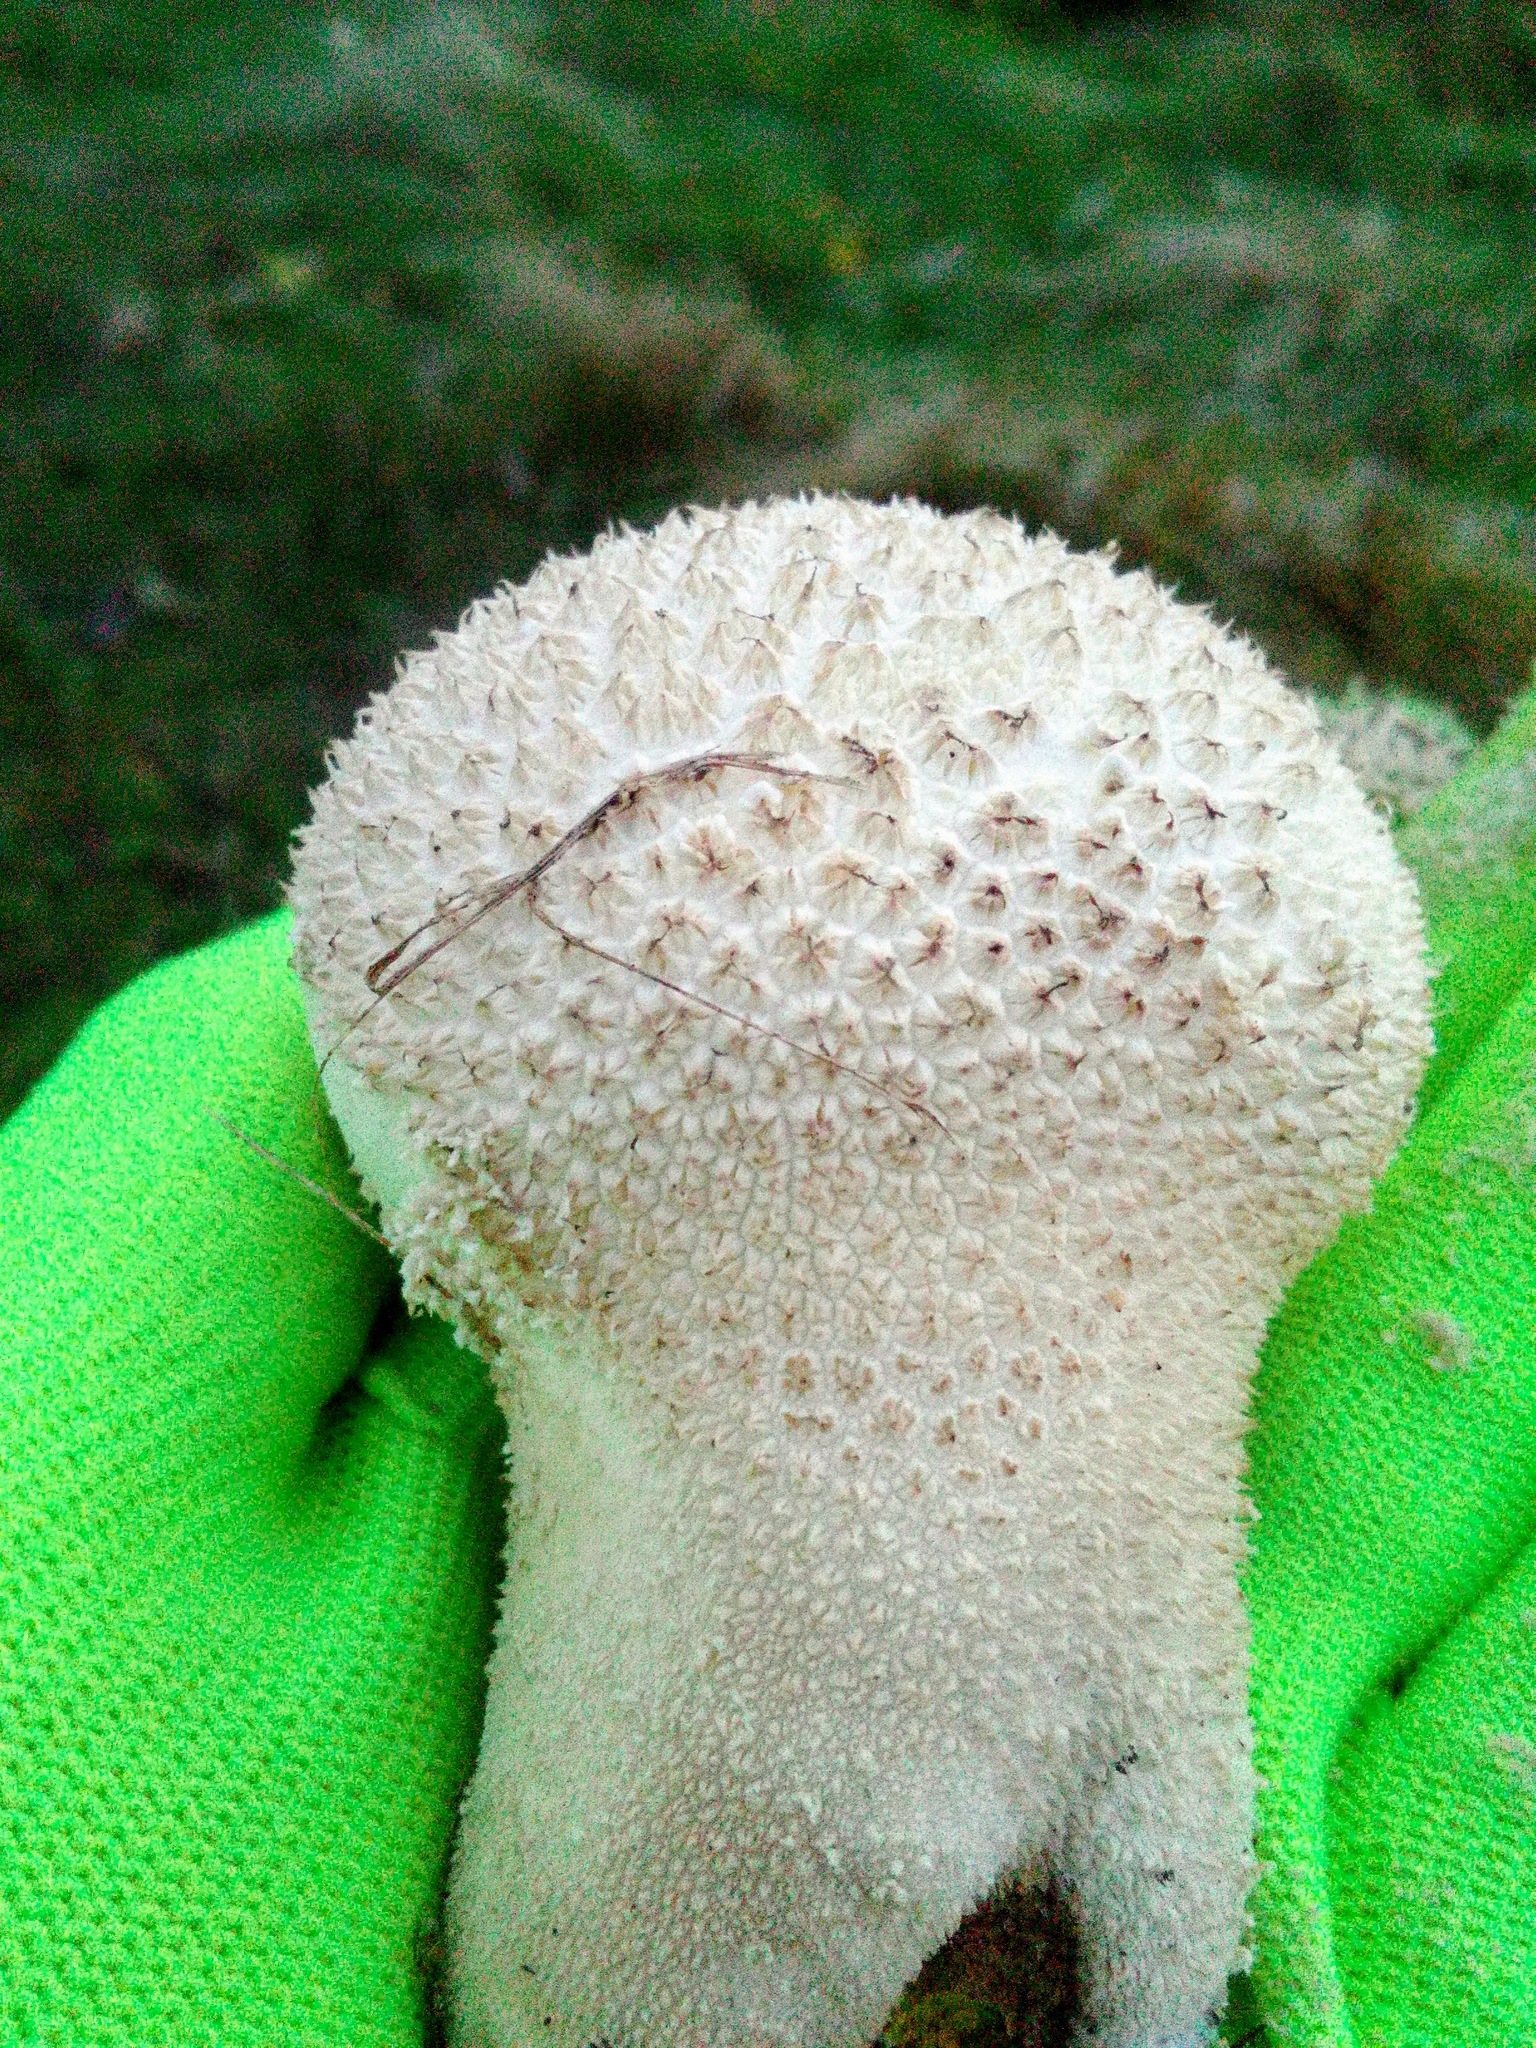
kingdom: Fungi
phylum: Basidiomycota
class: Agaricomycetes
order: Agaricales
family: Lycoperdaceae
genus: Lycoperdon
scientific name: Lycoperdon excipuliforme
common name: Pestle puffball
